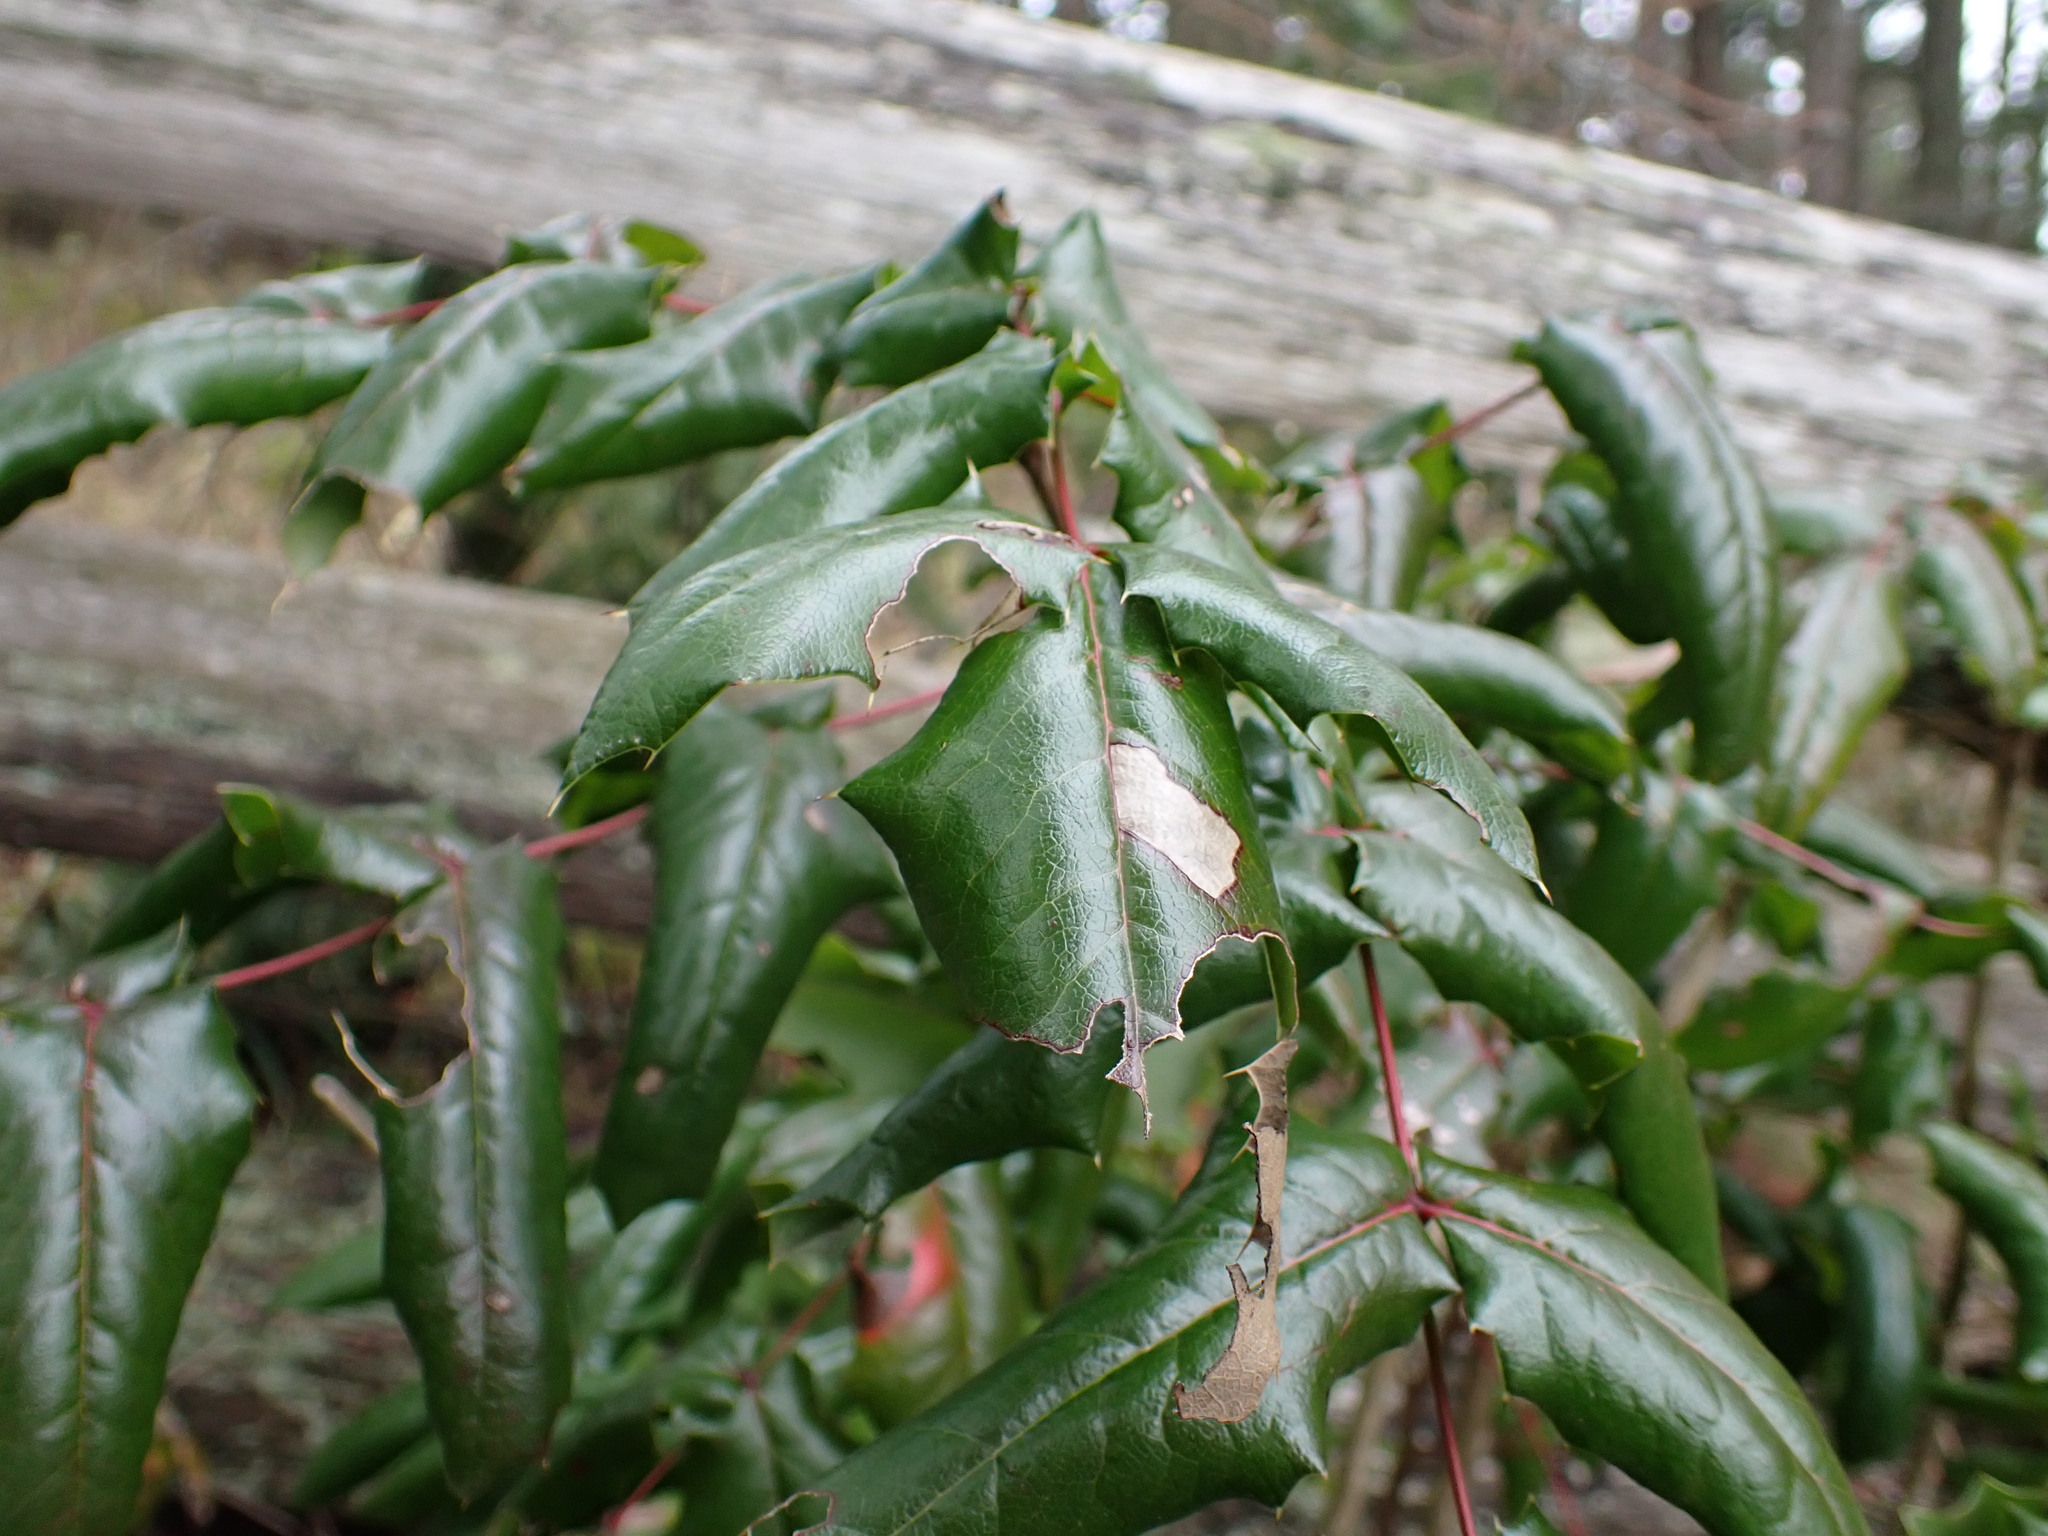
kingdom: Plantae
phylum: Tracheophyta
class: Magnoliopsida
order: Ranunculales
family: Berberidaceae
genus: Mahonia
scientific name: Mahonia aquifolium
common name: Oregon-grape
